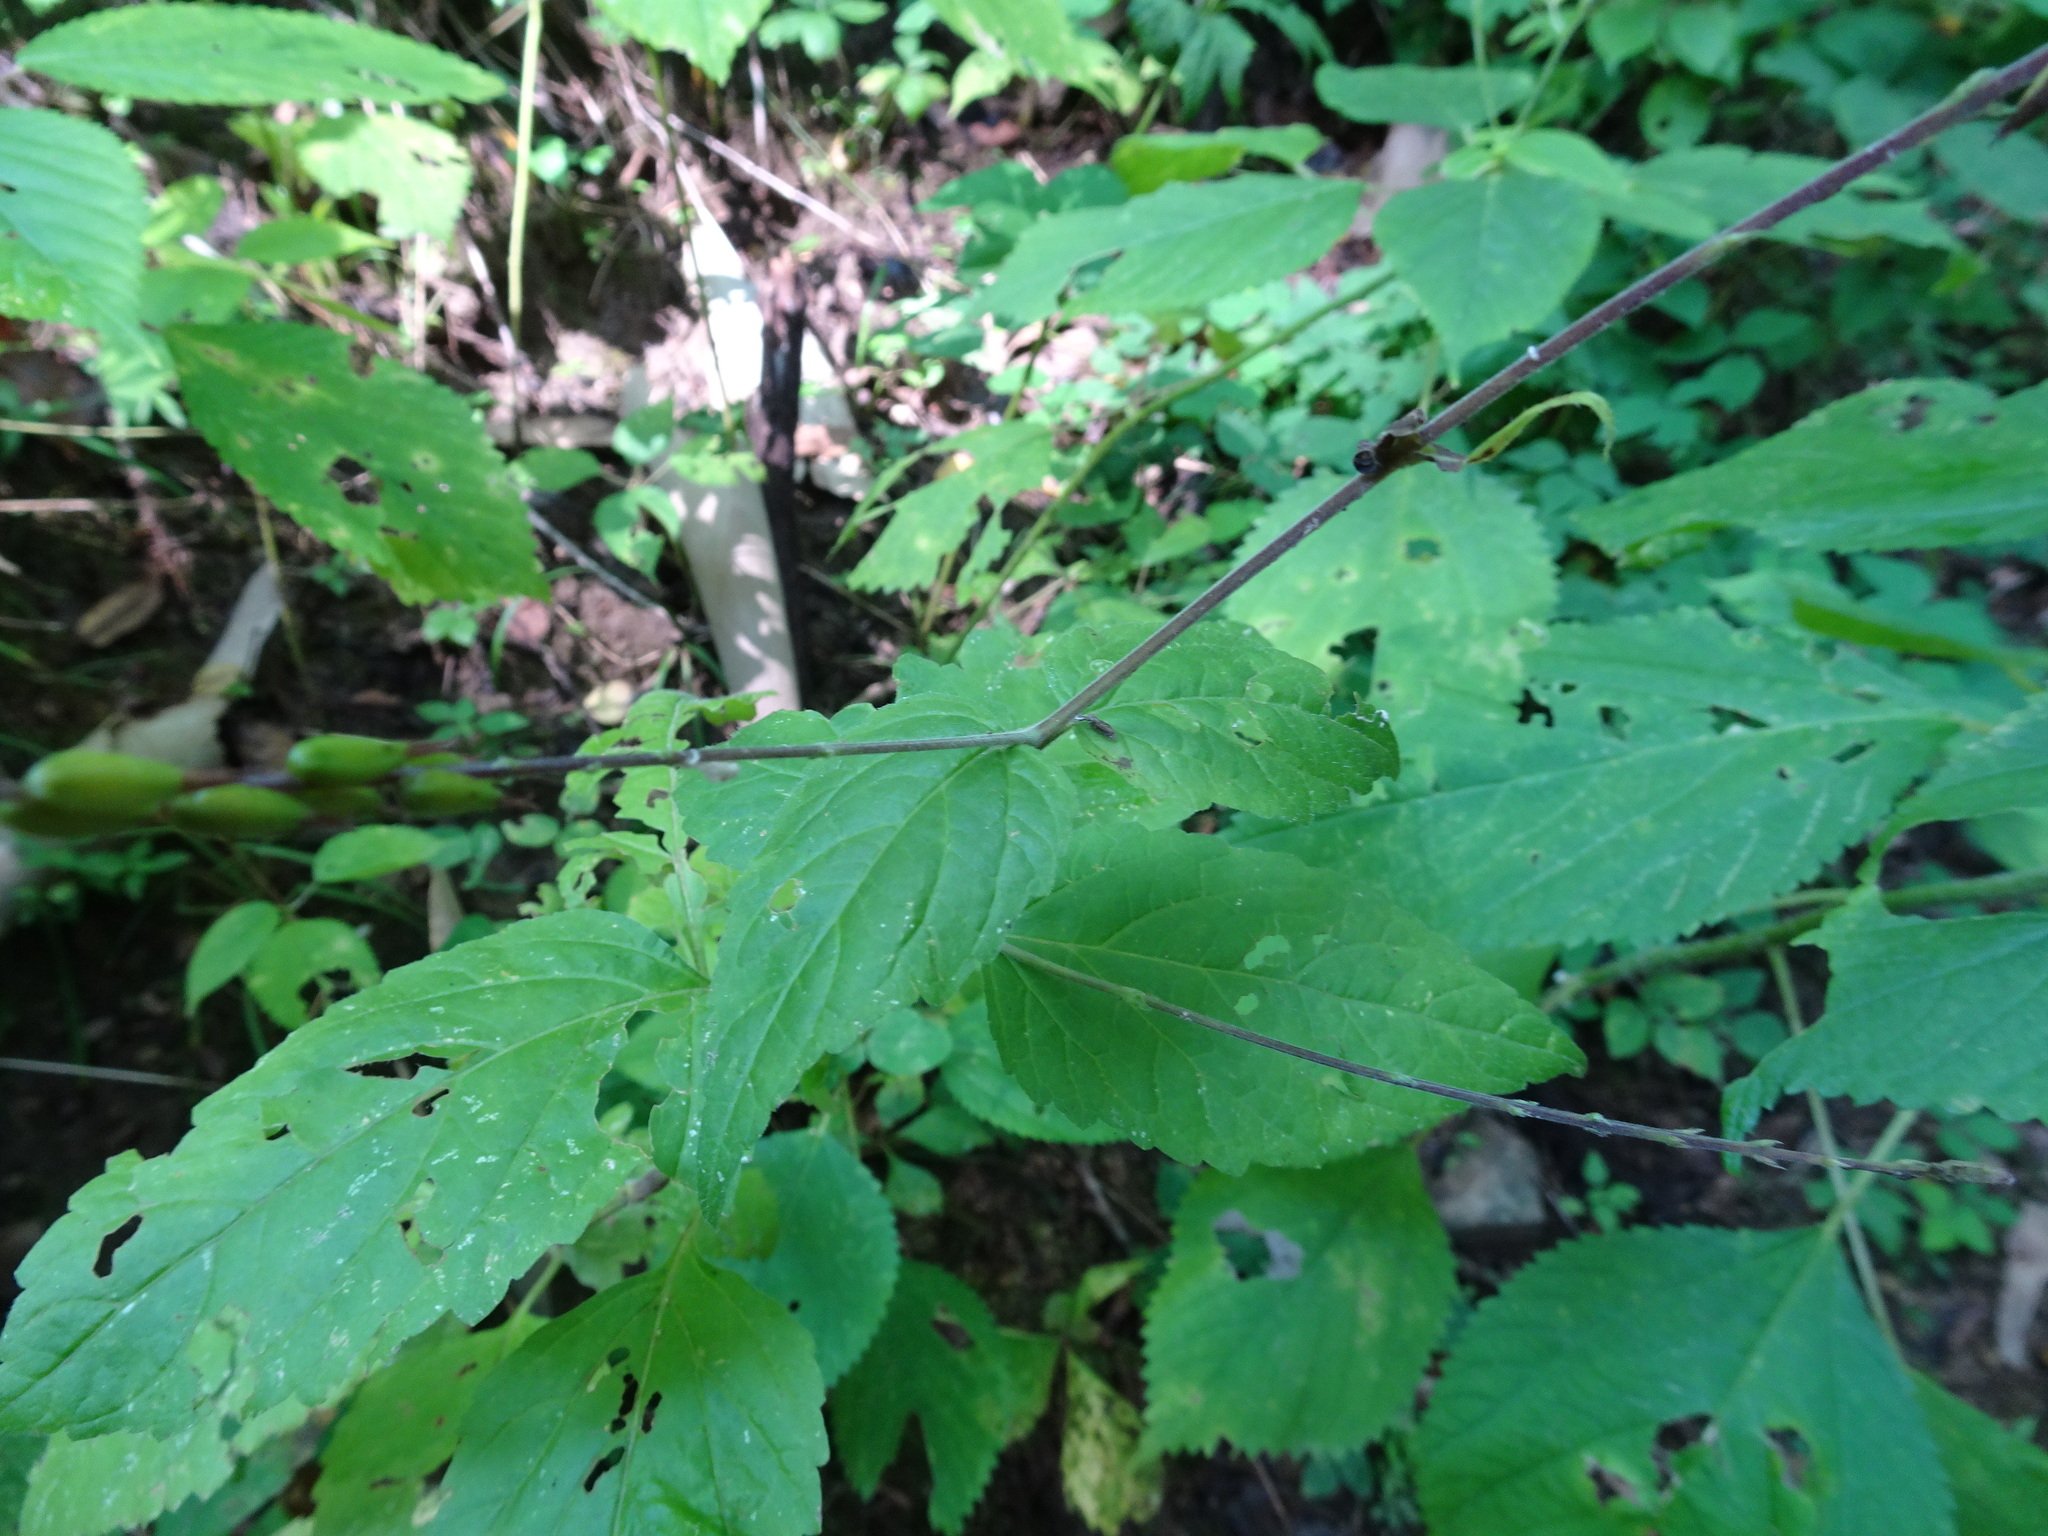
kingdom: Plantae
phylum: Tracheophyta
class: Magnoliopsida
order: Lamiales
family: Phrymaceae
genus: Phryma
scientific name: Phryma leptostachya
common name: American lopseed
